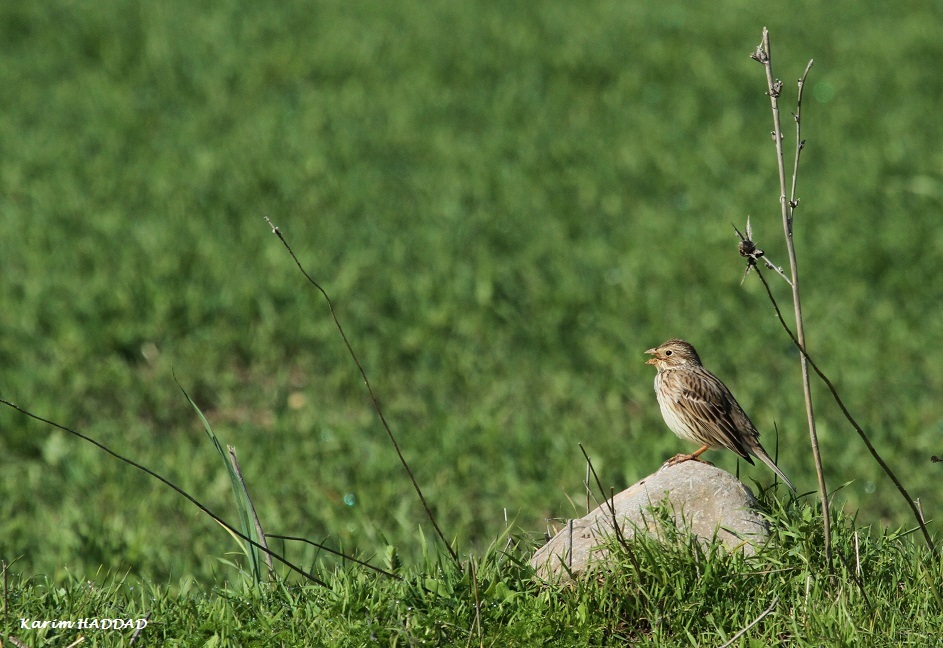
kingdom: Animalia
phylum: Chordata
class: Aves
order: Passeriformes
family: Emberizidae
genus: Emberiza
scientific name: Emberiza calandra
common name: Corn bunting
